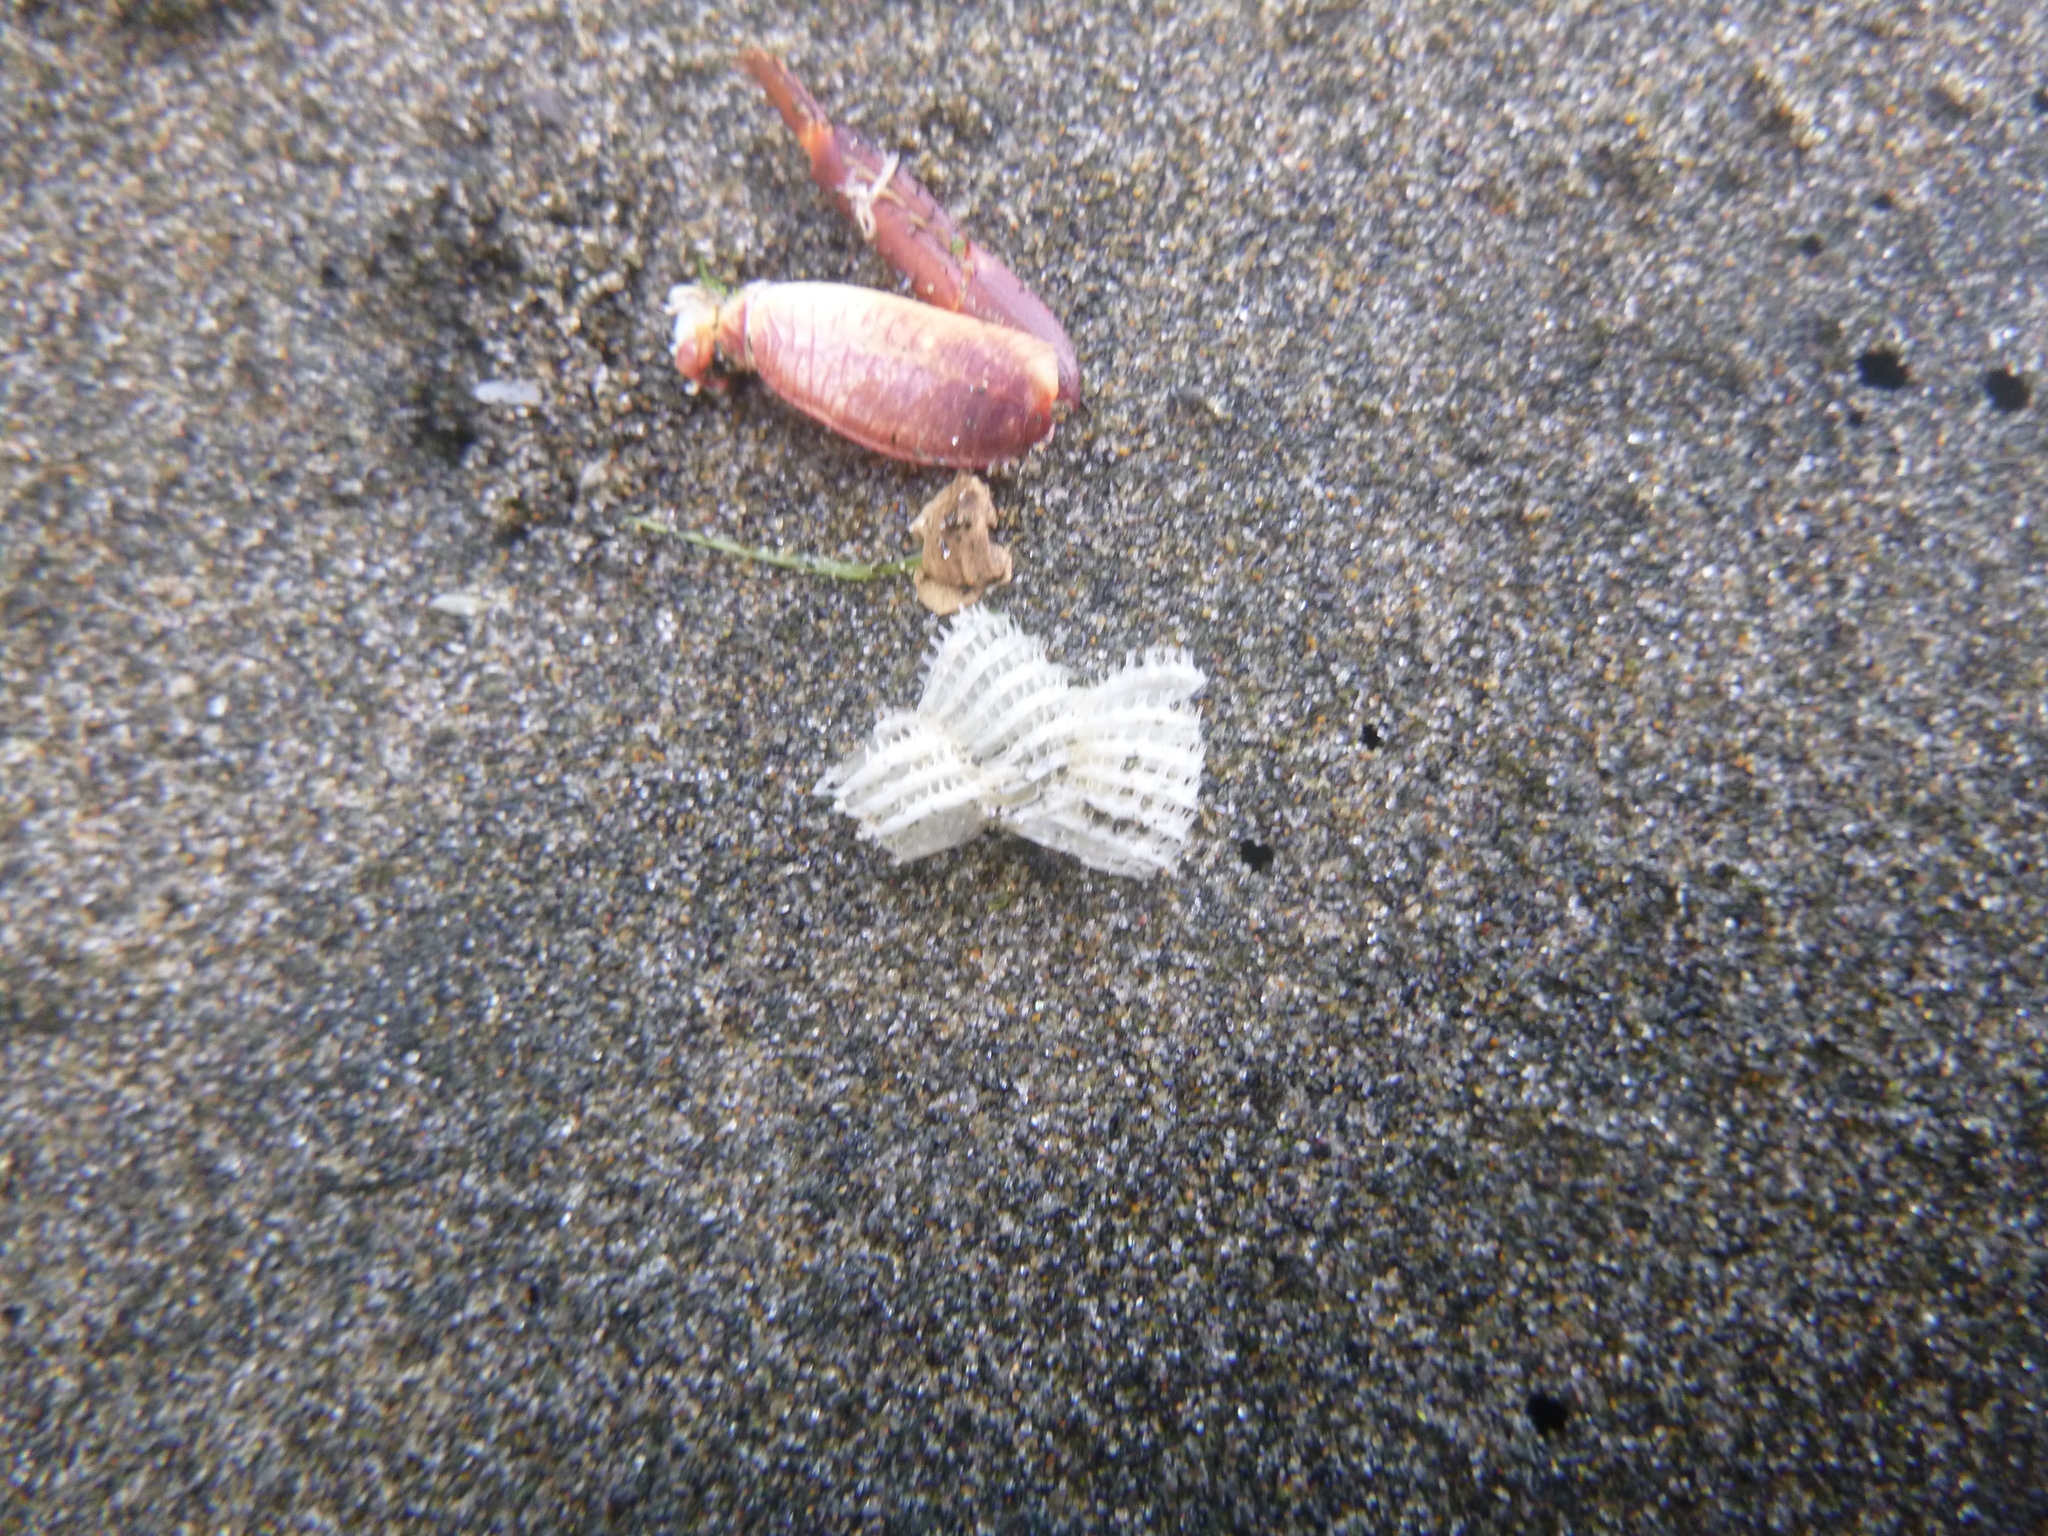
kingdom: Animalia
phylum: Arthropoda
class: Malacostraca
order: Decapoda
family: Grapsidae
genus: Leptograpsus
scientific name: Leptograpsus variegatus
